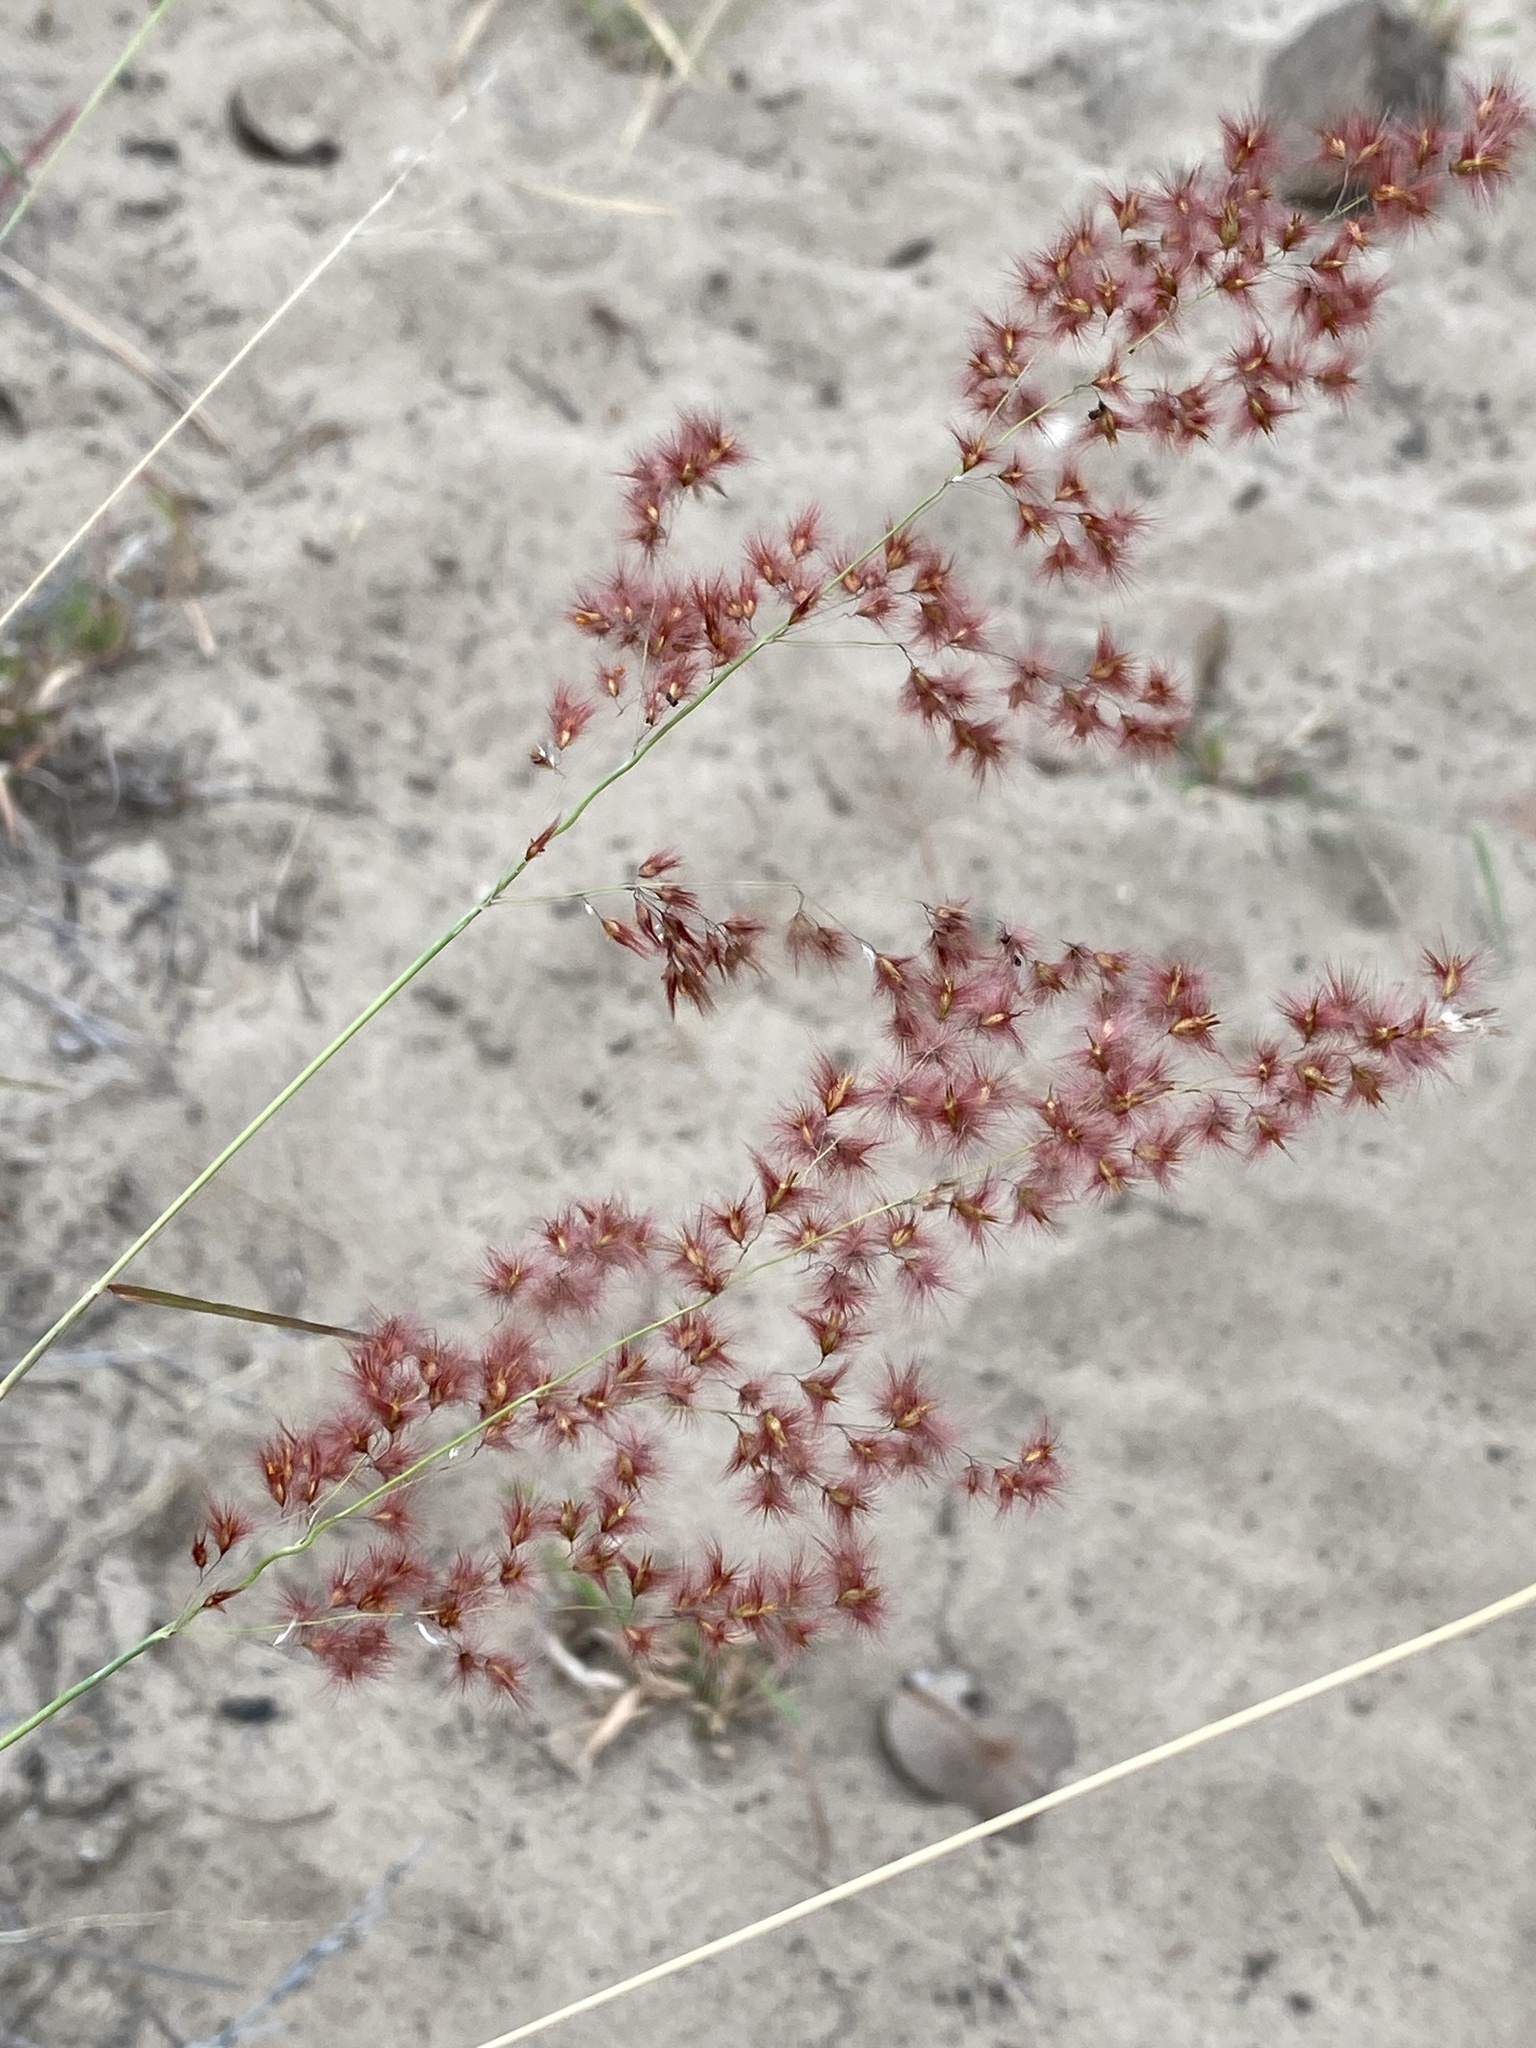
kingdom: Plantae
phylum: Tracheophyta
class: Liliopsida
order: Poales
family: Poaceae
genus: Melinis
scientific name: Melinis repens
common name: Rose natal grass
